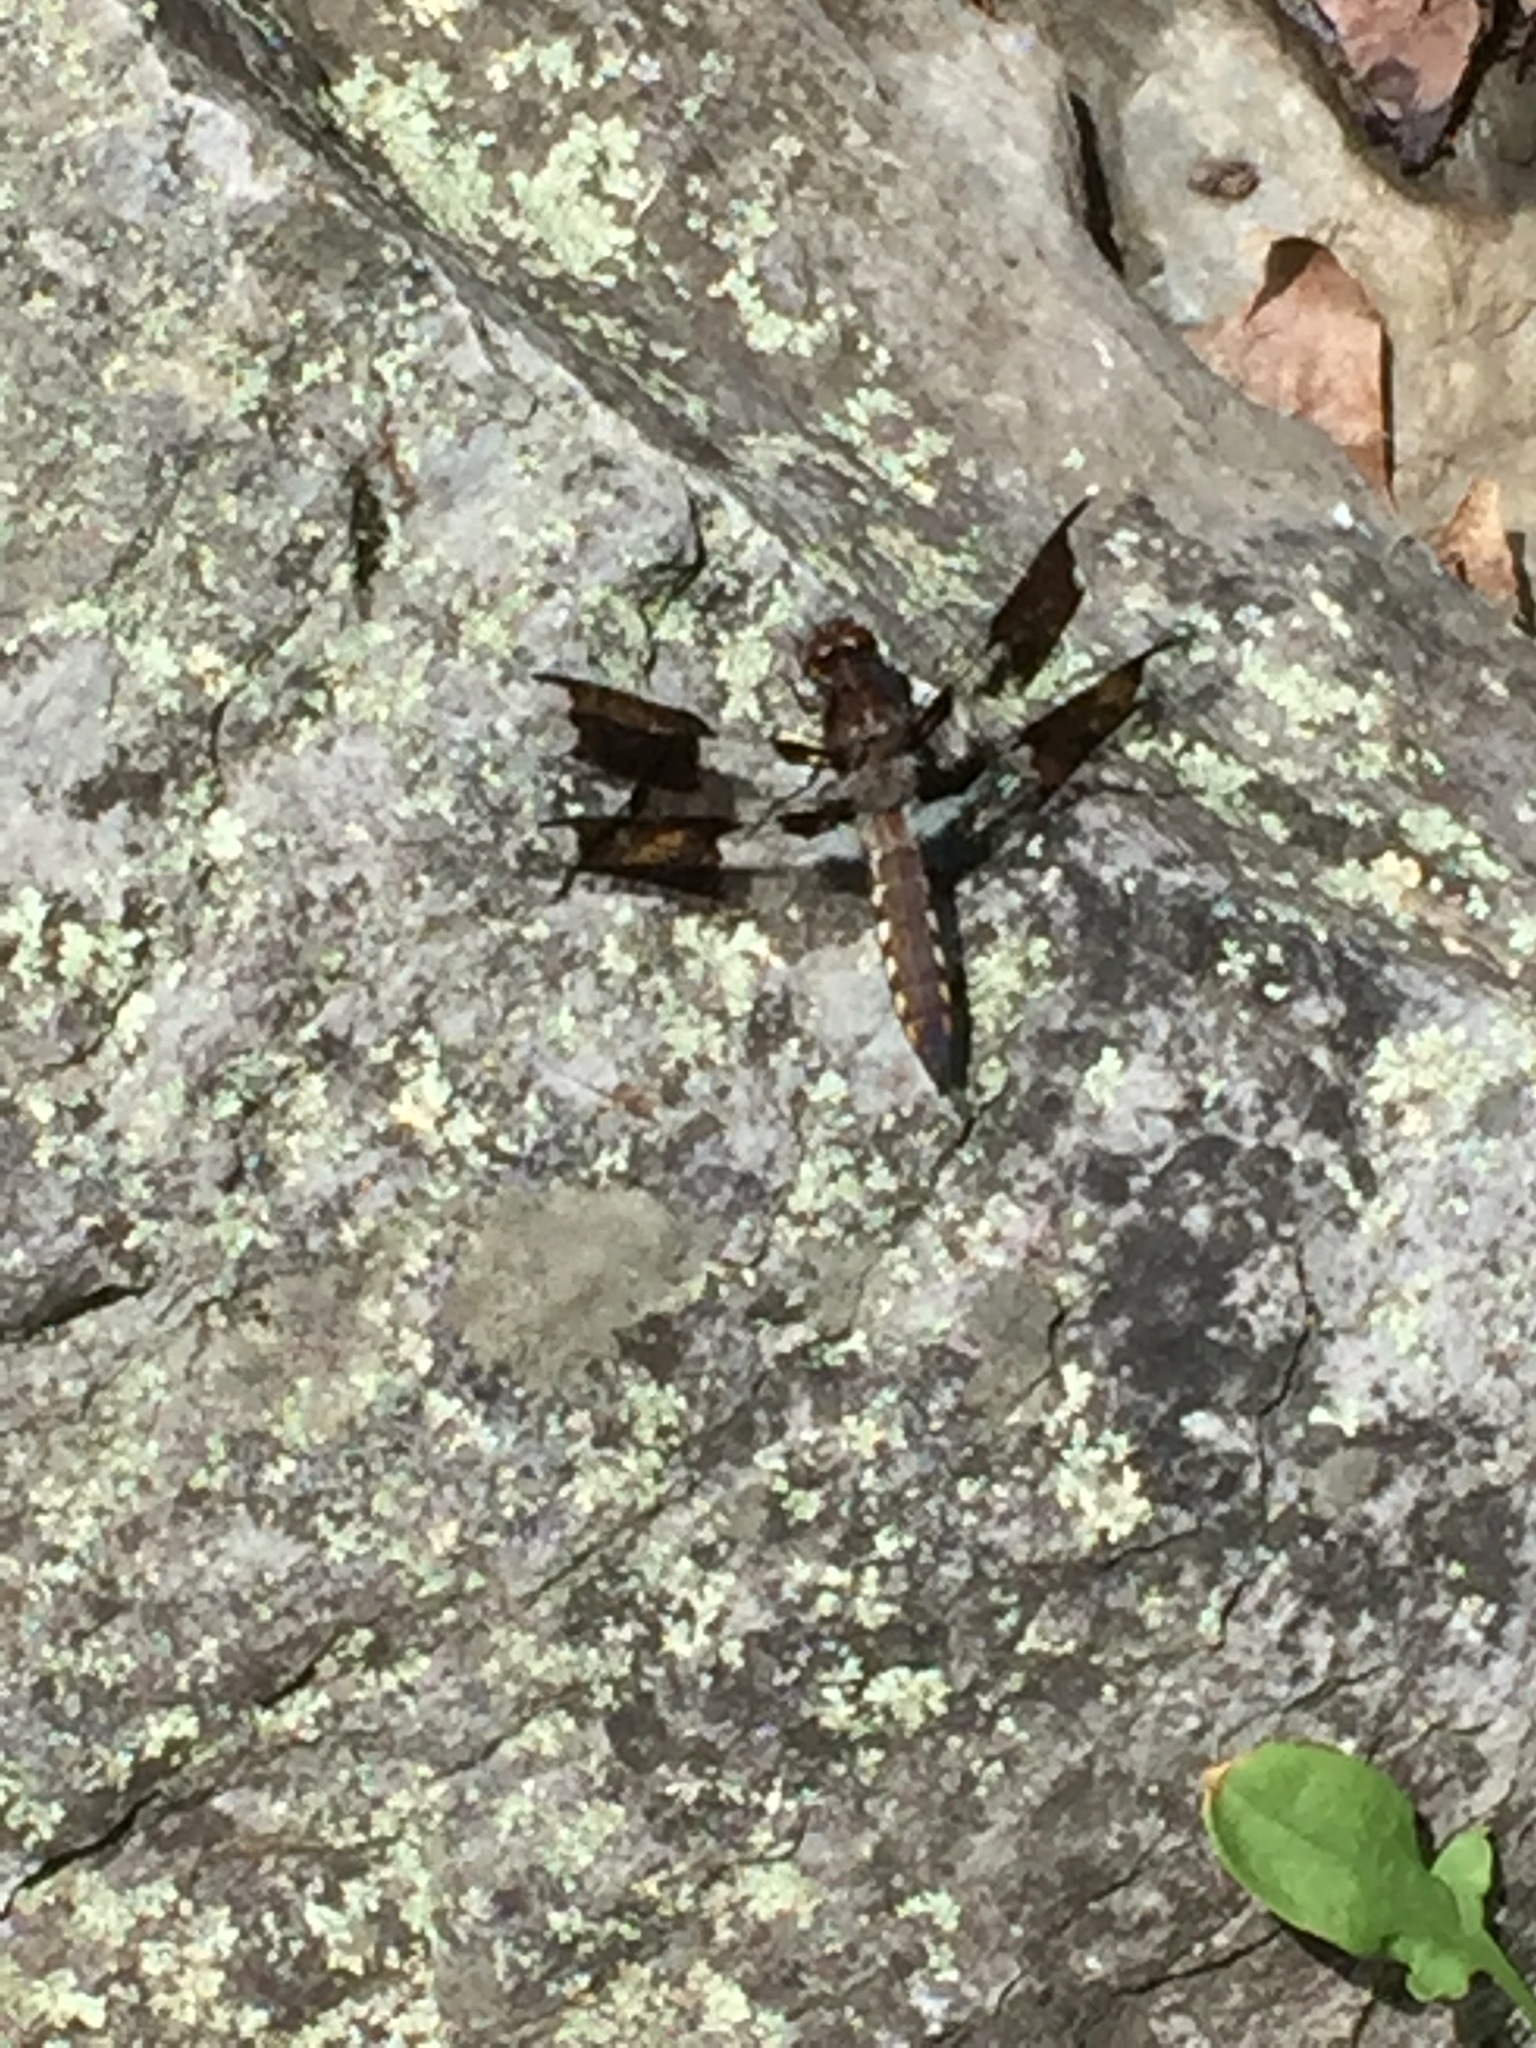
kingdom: Animalia
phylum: Arthropoda
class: Insecta
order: Odonata
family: Libellulidae
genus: Plathemis
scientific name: Plathemis lydia
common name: Common whitetail
